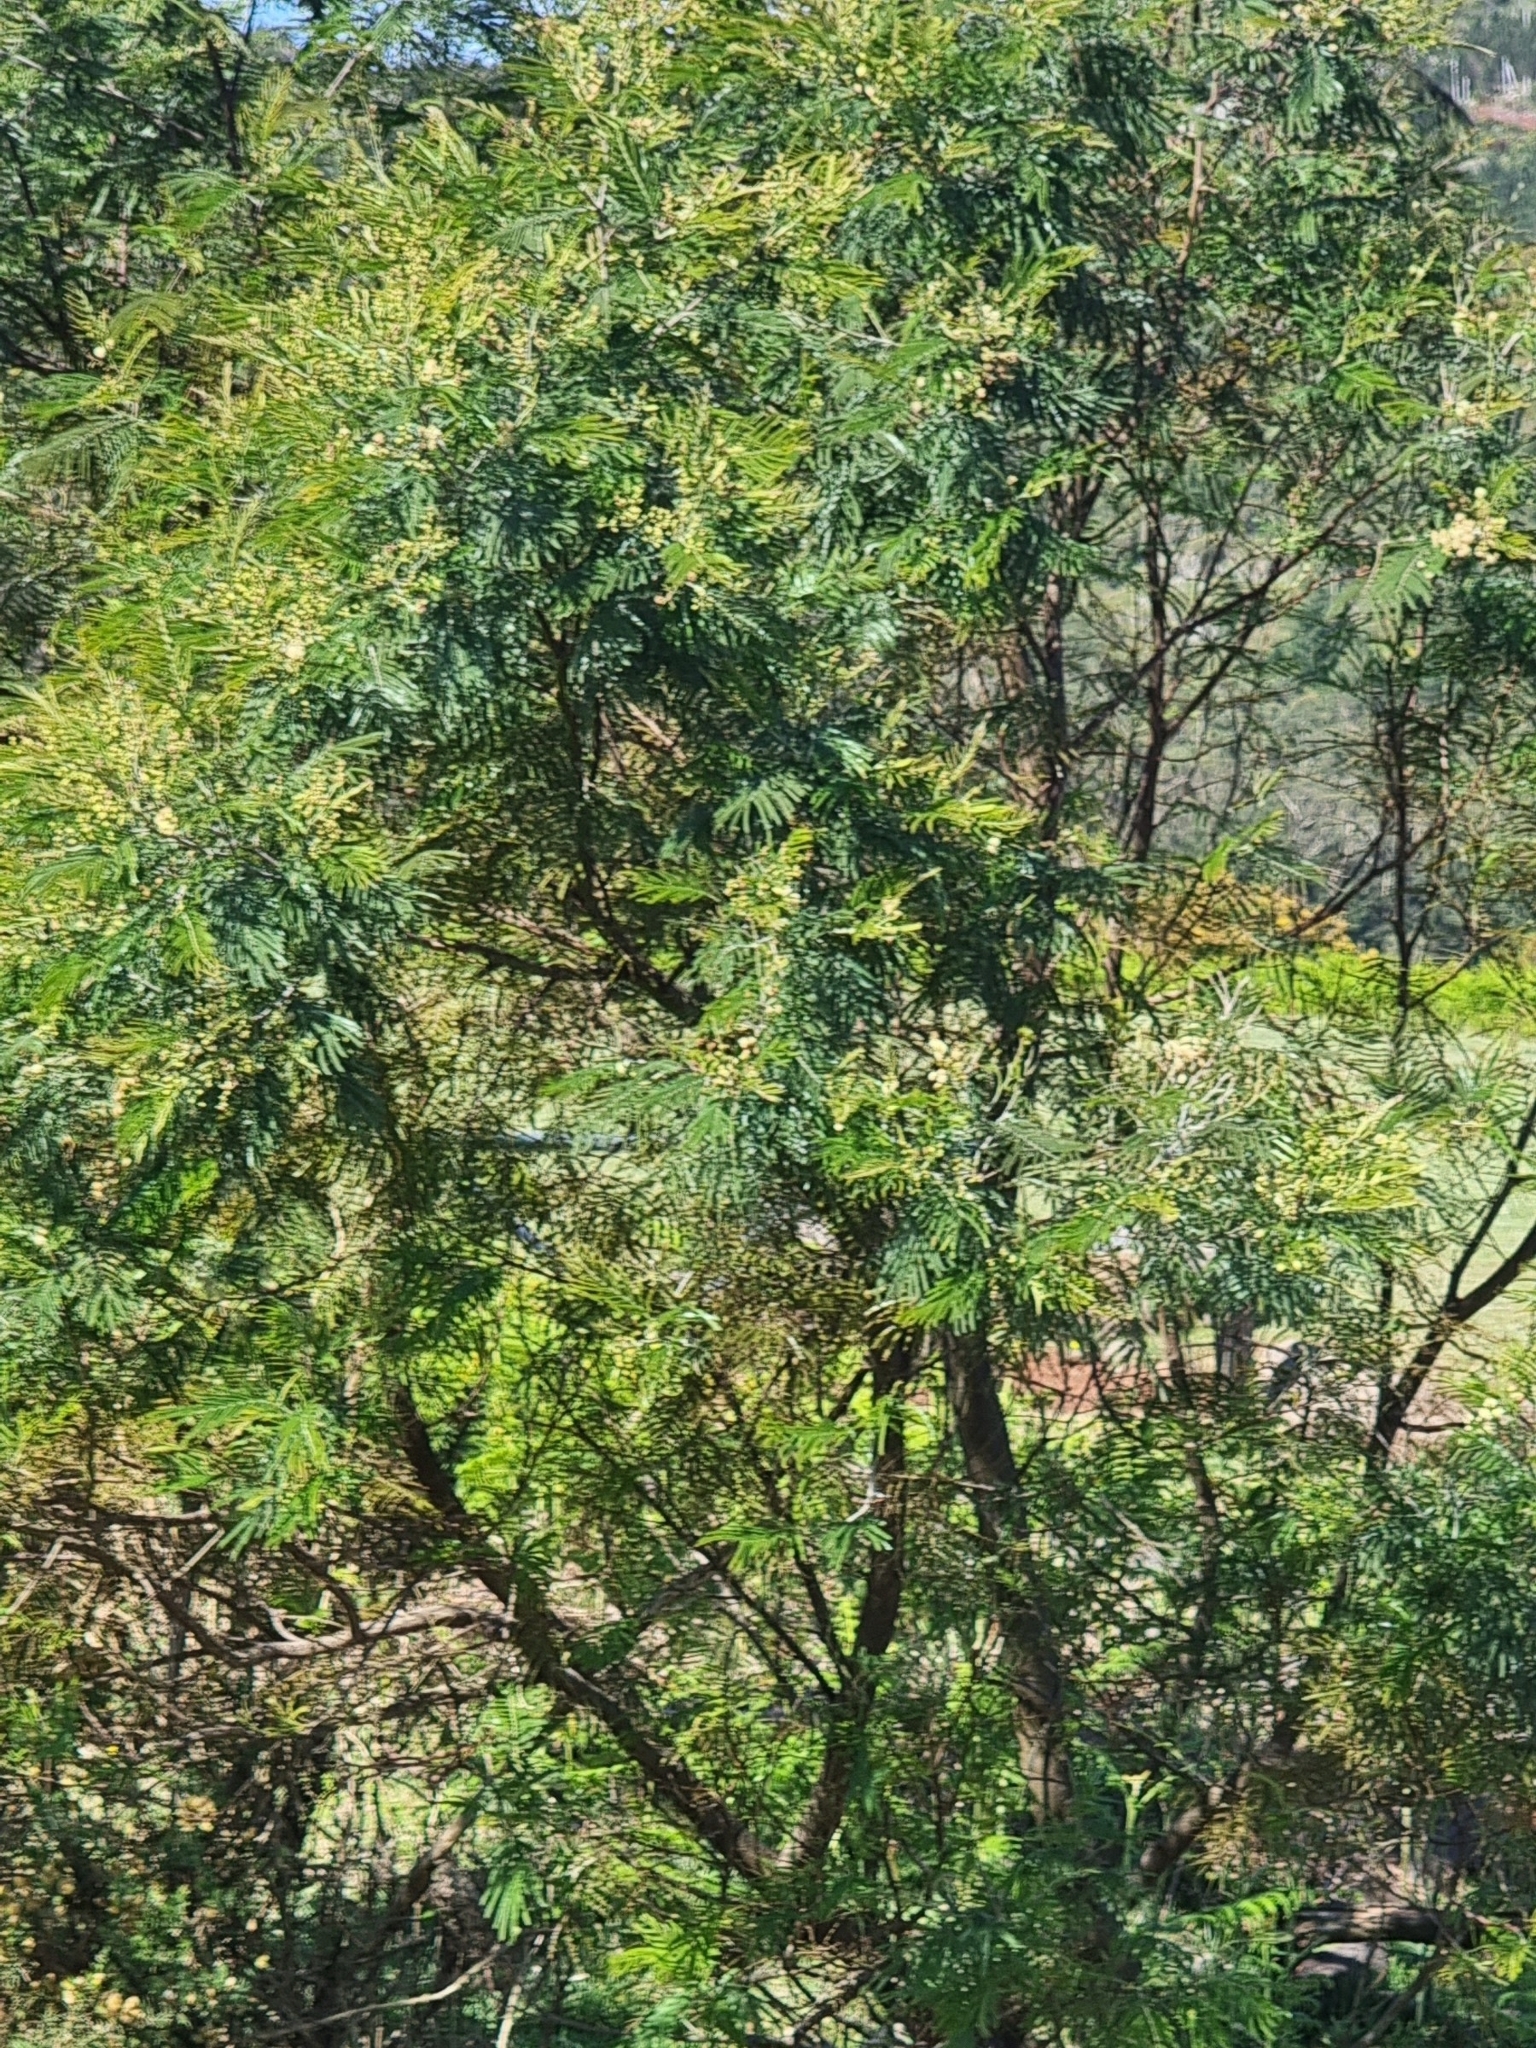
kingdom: Plantae
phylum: Tracheophyta
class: Magnoliopsida
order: Fabales
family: Fabaceae
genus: Acacia
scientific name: Acacia mearnsii
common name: Black wattle
